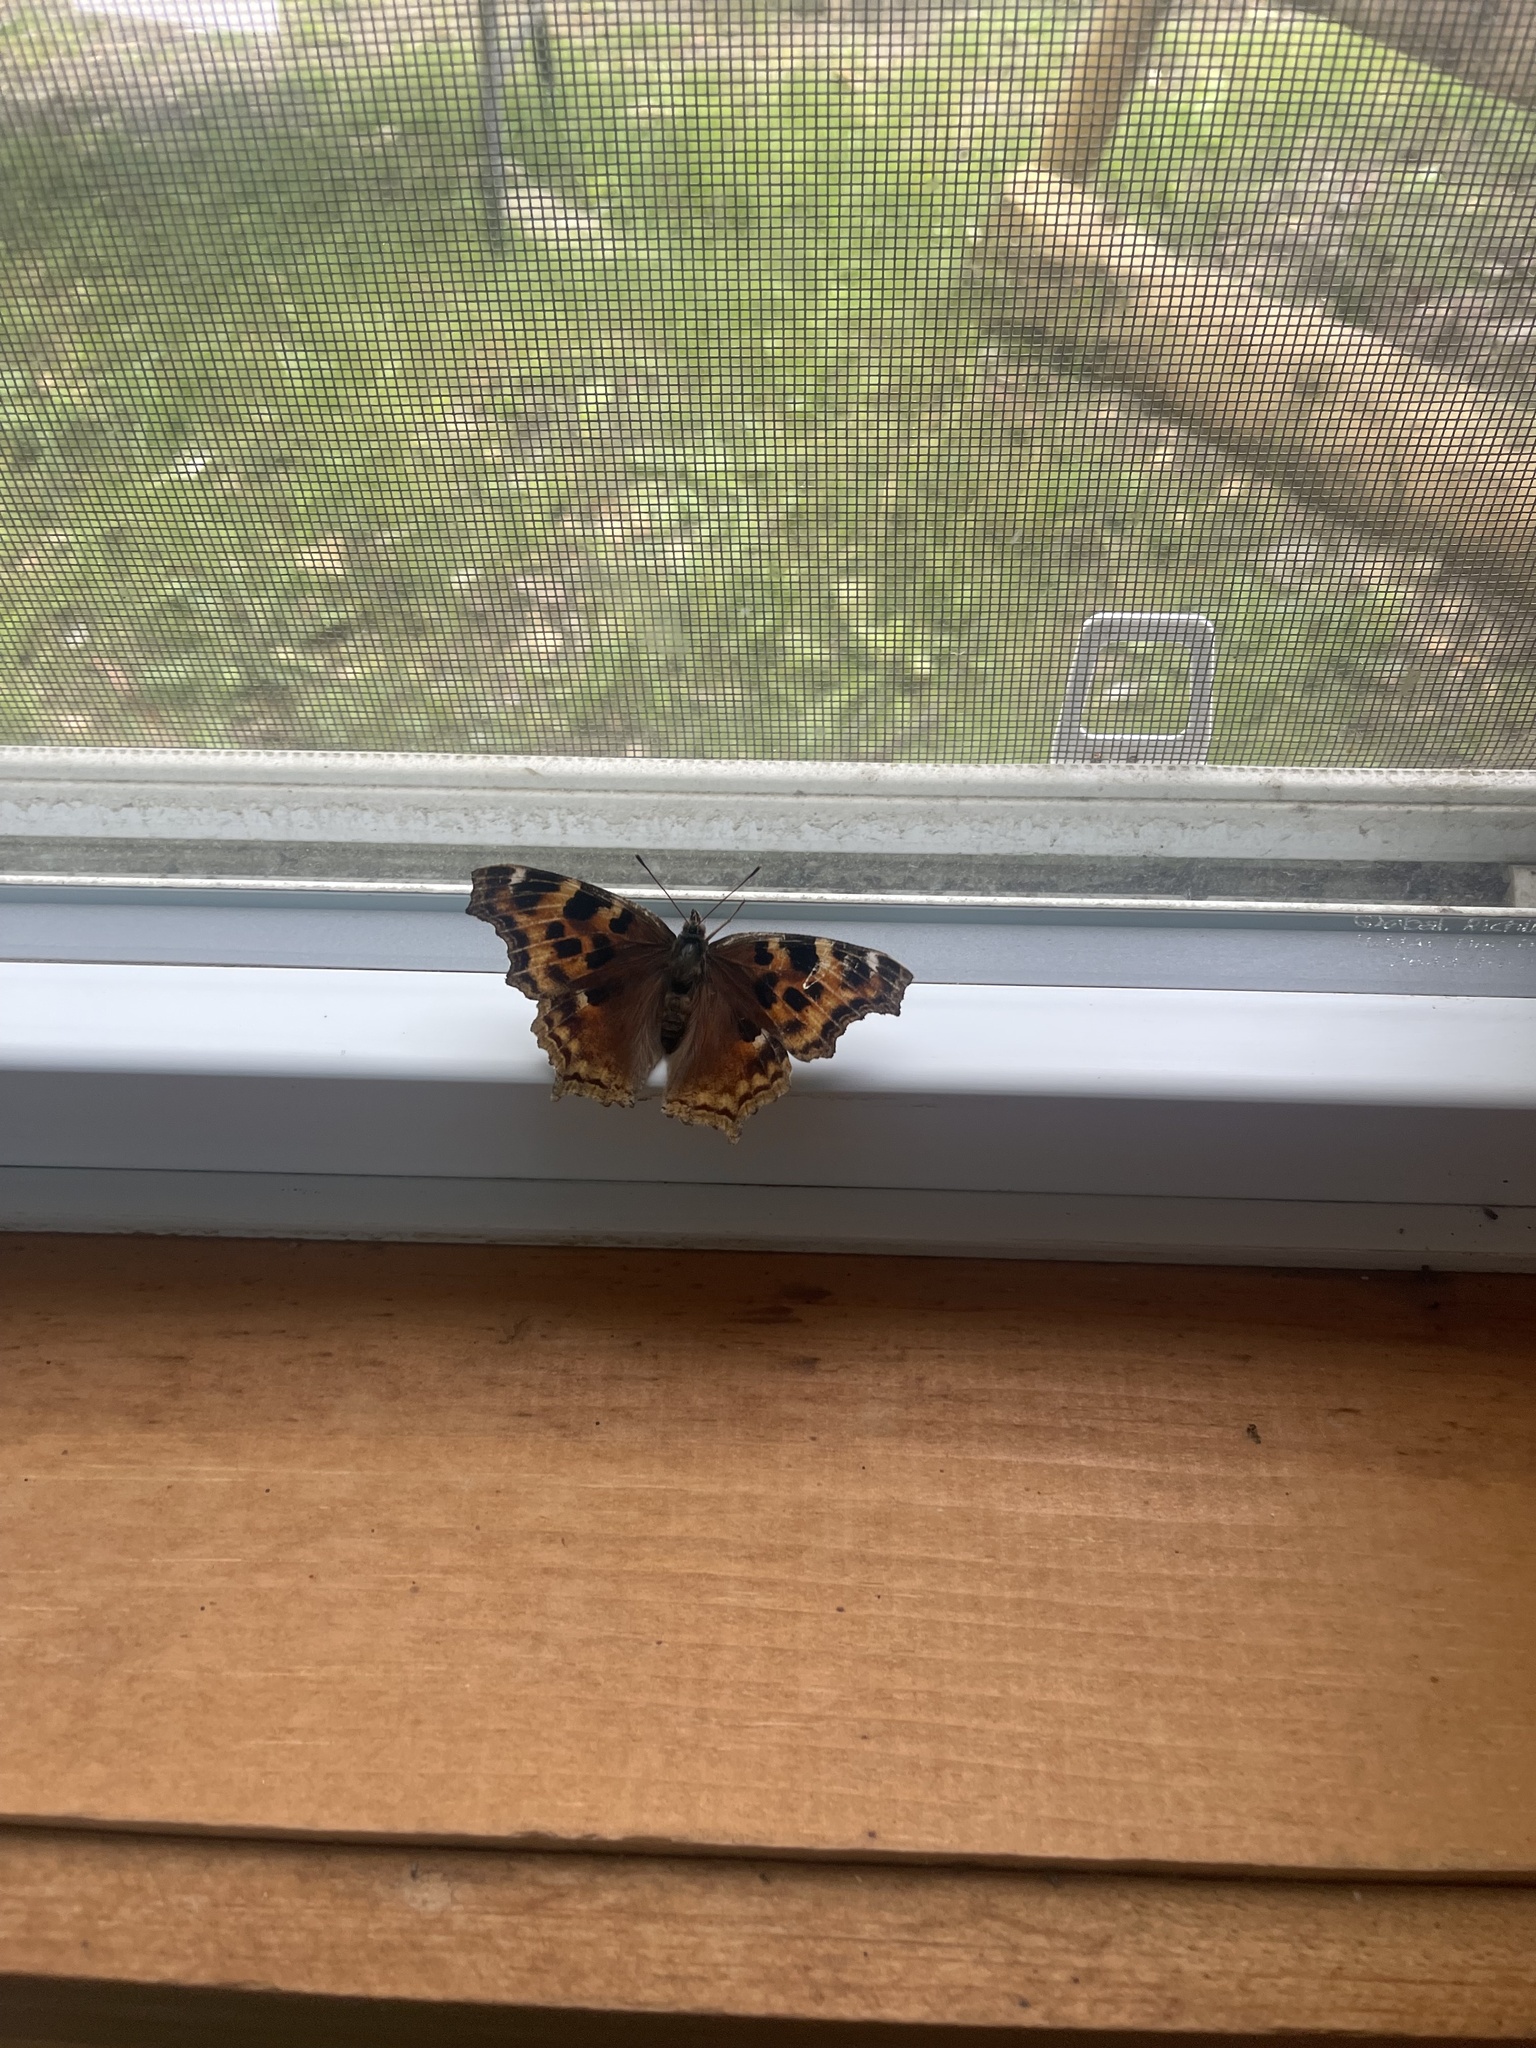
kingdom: Animalia
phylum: Arthropoda
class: Insecta
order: Lepidoptera
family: Nymphalidae
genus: Polygonia
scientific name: Polygonia vaualbum
